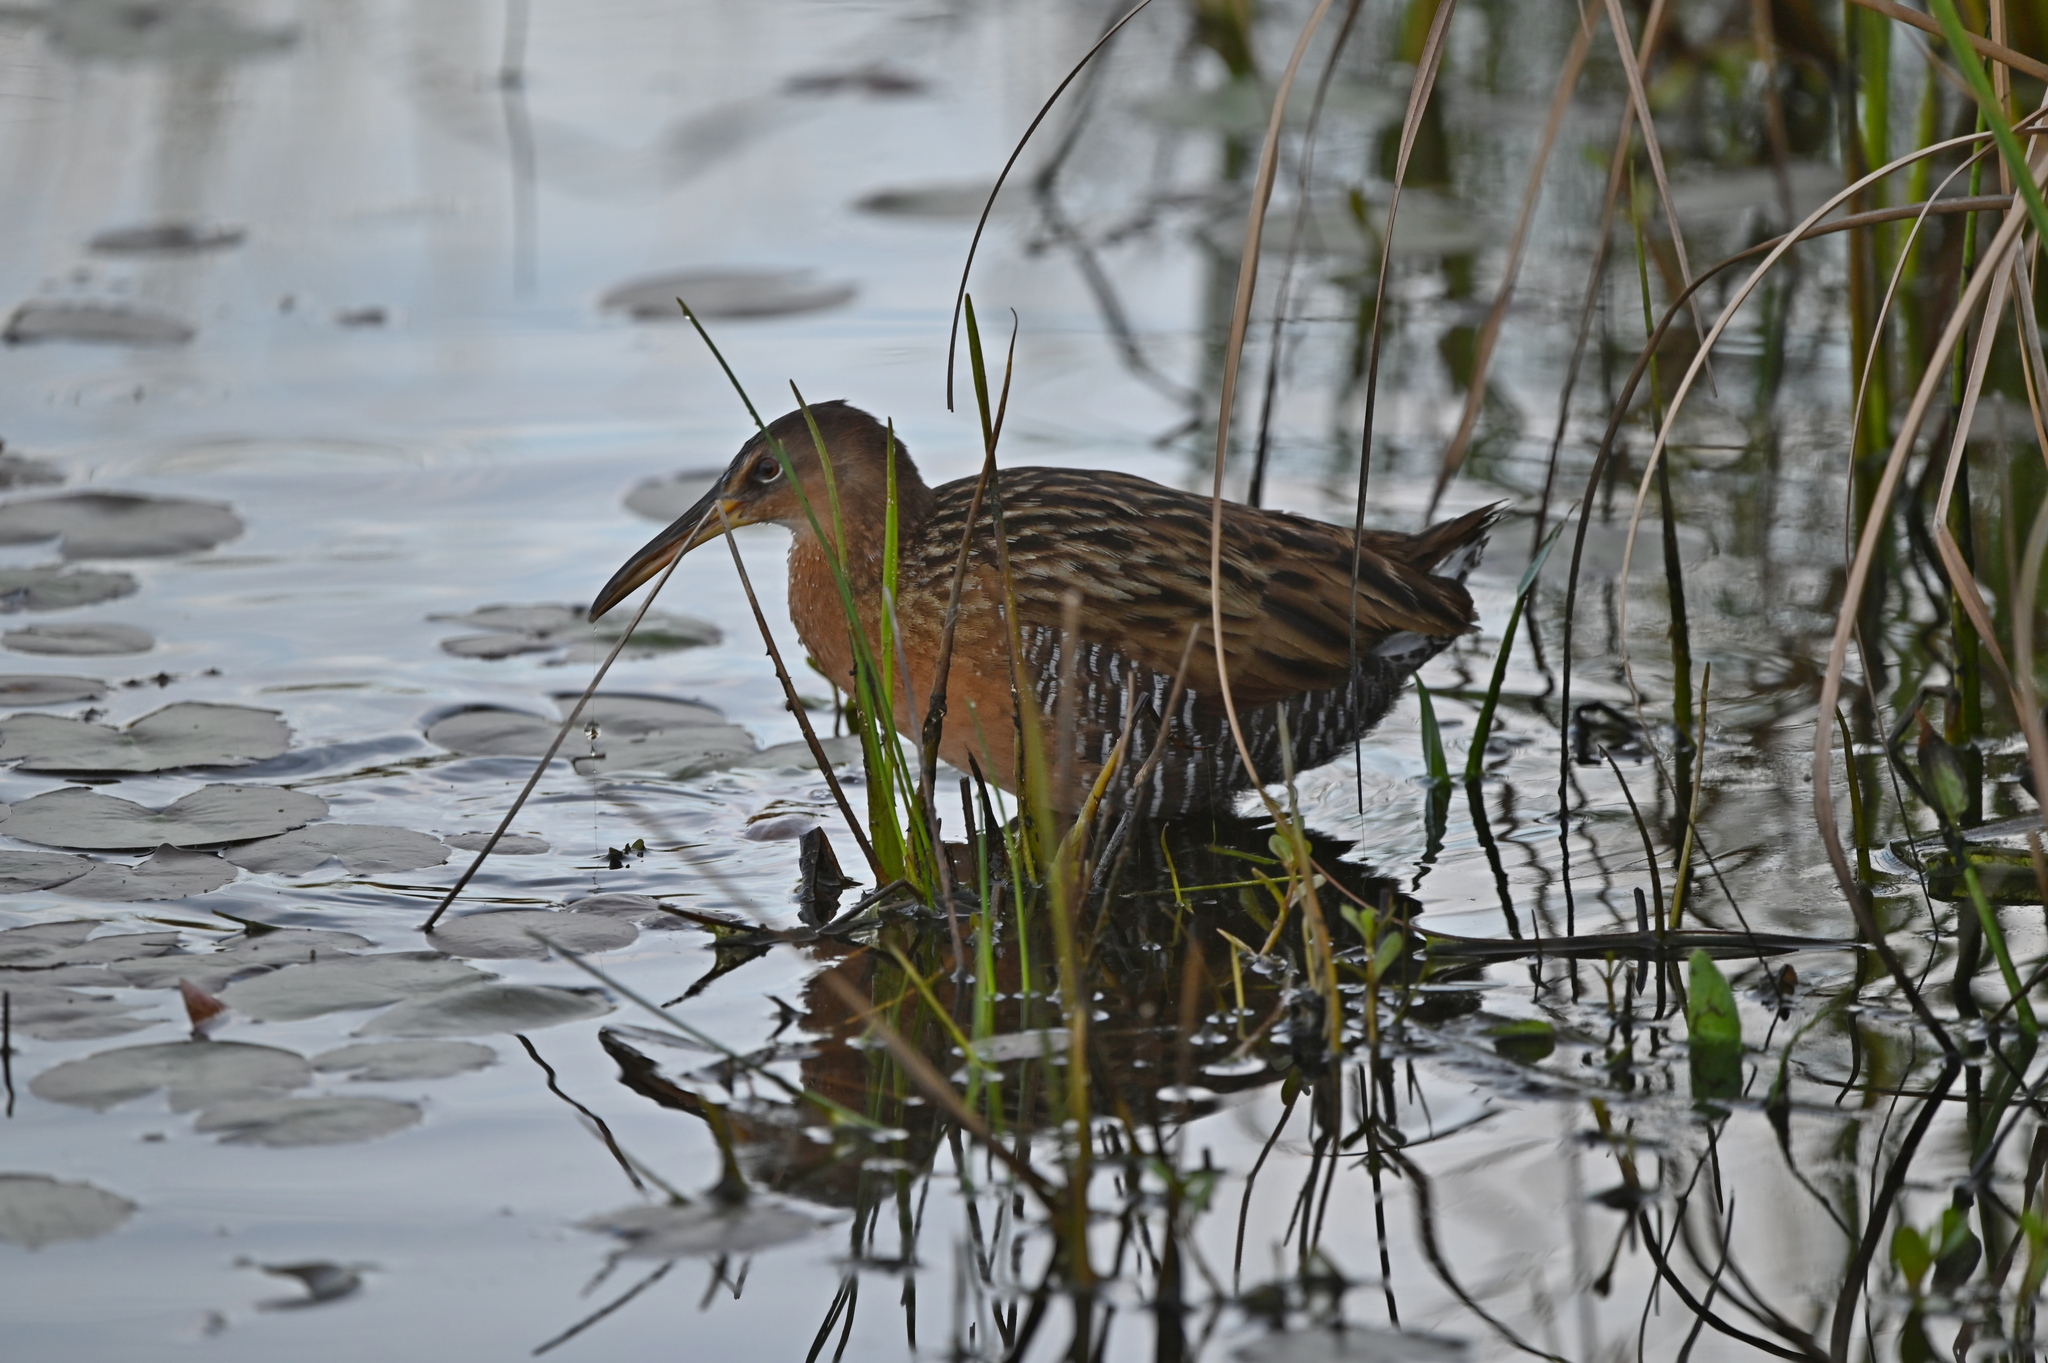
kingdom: Animalia
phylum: Chordata
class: Aves
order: Gruiformes
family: Rallidae
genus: Rallus
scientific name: Rallus elegans
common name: King rail
